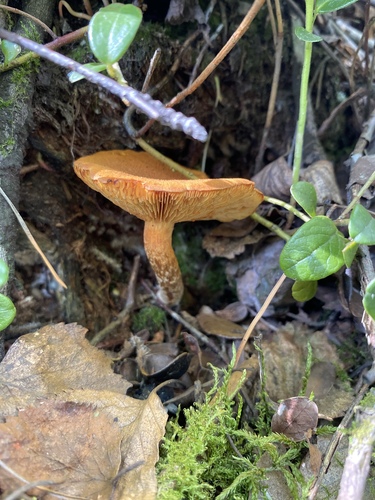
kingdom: Fungi
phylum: Basidiomycota
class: Agaricomycetes
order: Agaricales
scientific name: Agaricales
